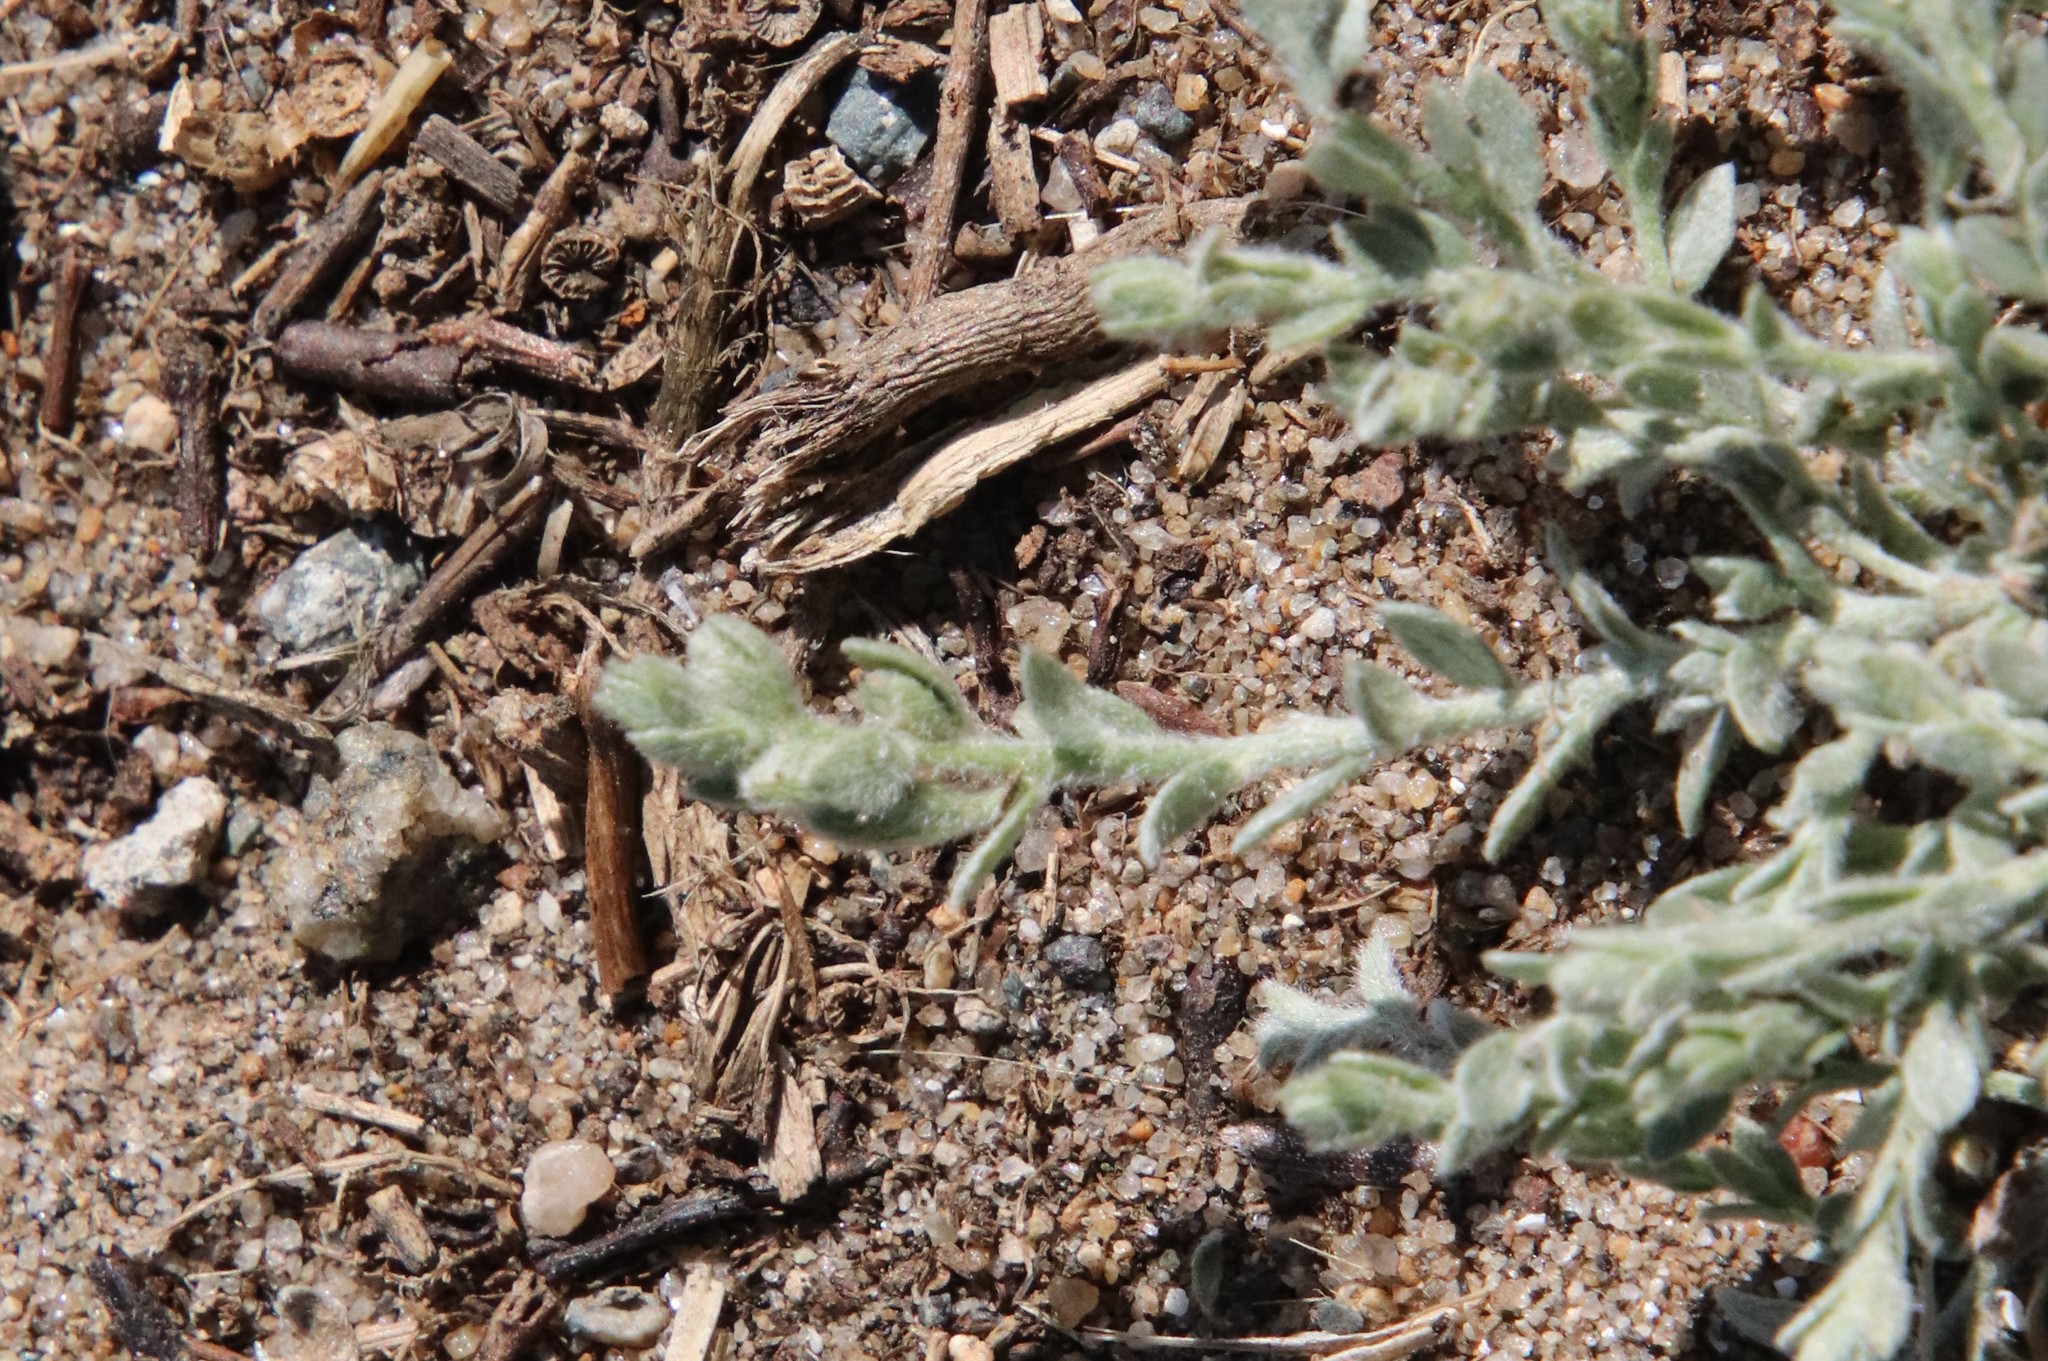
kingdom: Plantae
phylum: Tracheophyta
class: Magnoliopsida
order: Solanales
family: Convolvulaceae
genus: Cressa
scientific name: Cressa truxillensis
